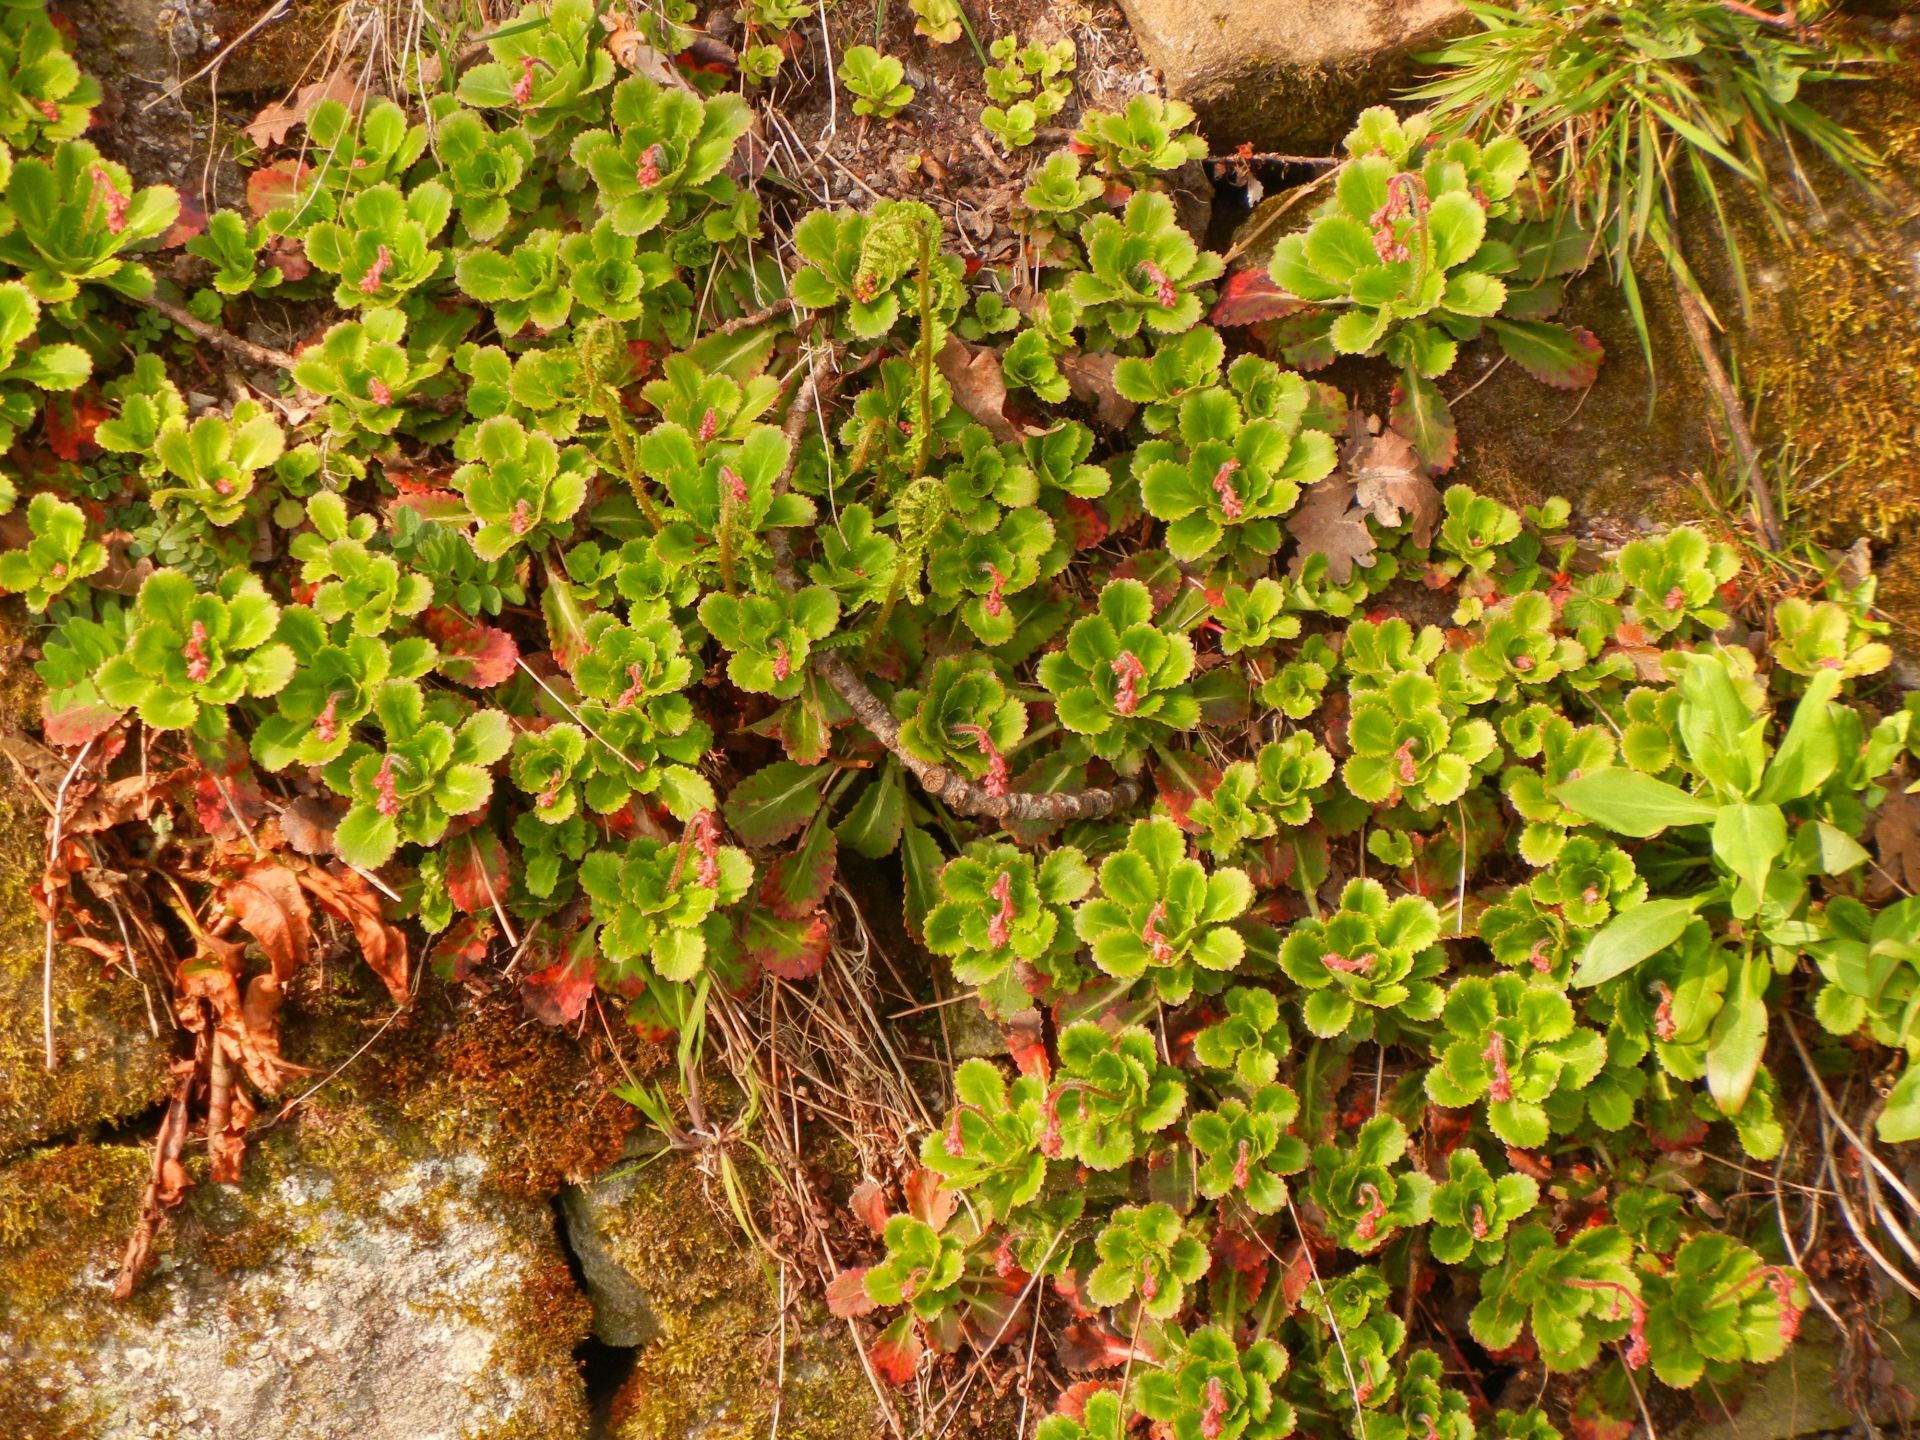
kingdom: Plantae
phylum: Tracheophyta
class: Magnoliopsida
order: Saxifragales
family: Saxifragaceae
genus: Saxifraga
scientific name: Saxifraga urbium
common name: Londonpride
